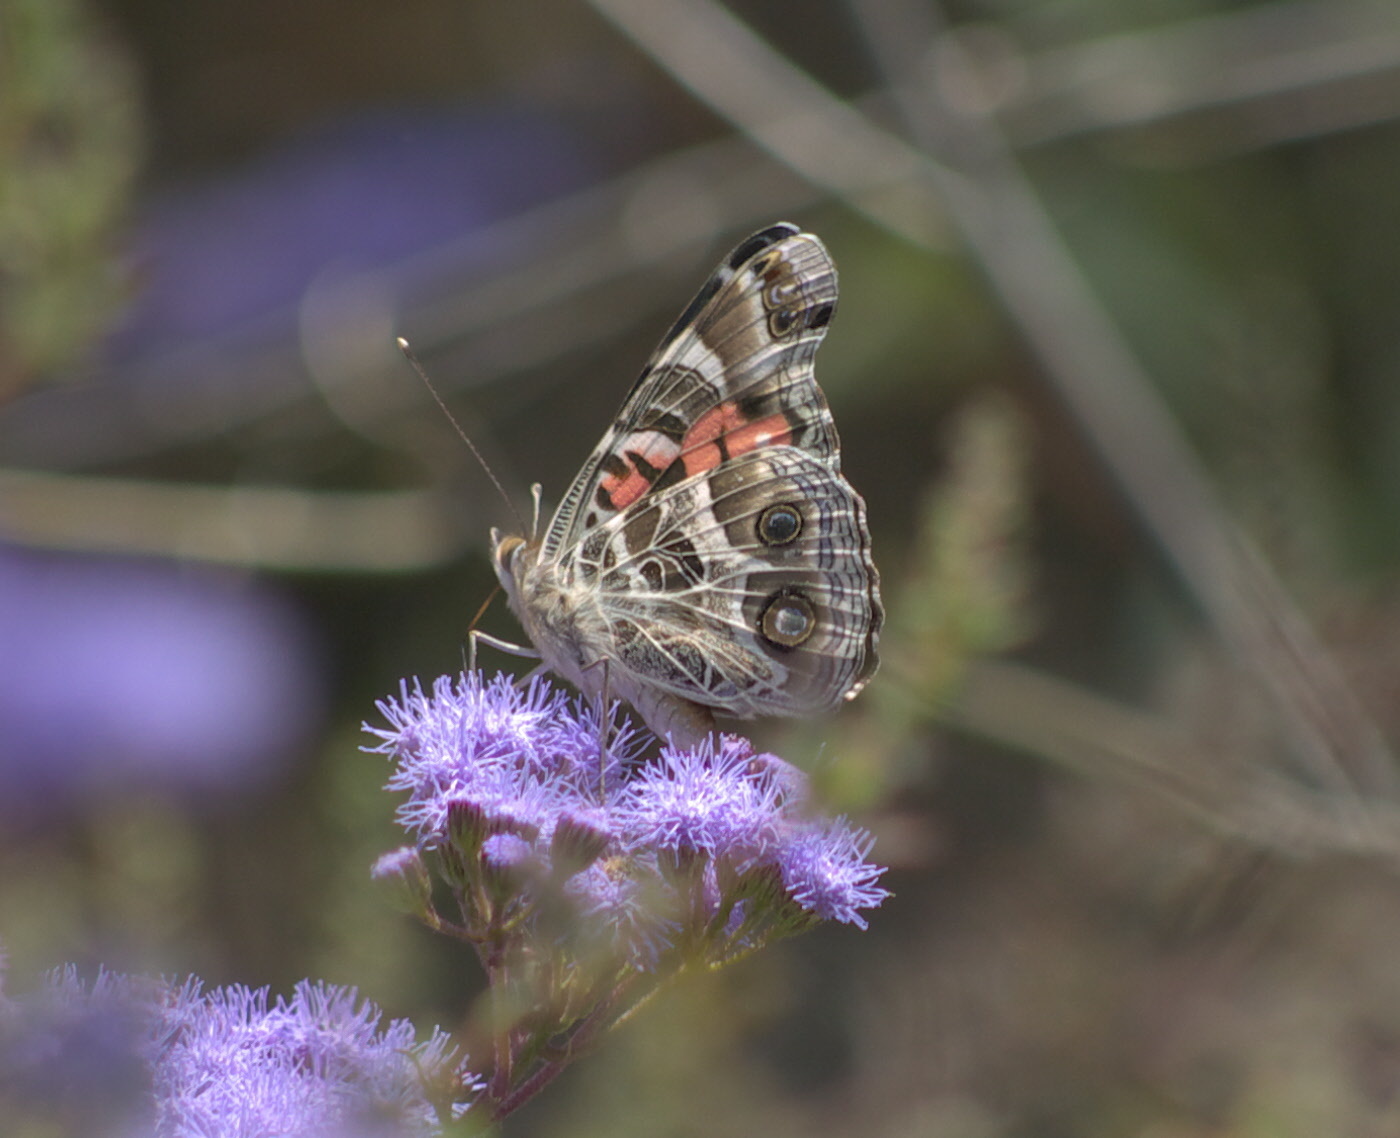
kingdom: Animalia
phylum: Arthropoda
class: Insecta
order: Lepidoptera
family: Nymphalidae
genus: Vanessa
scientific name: Vanessa virginiensis
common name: American lady
